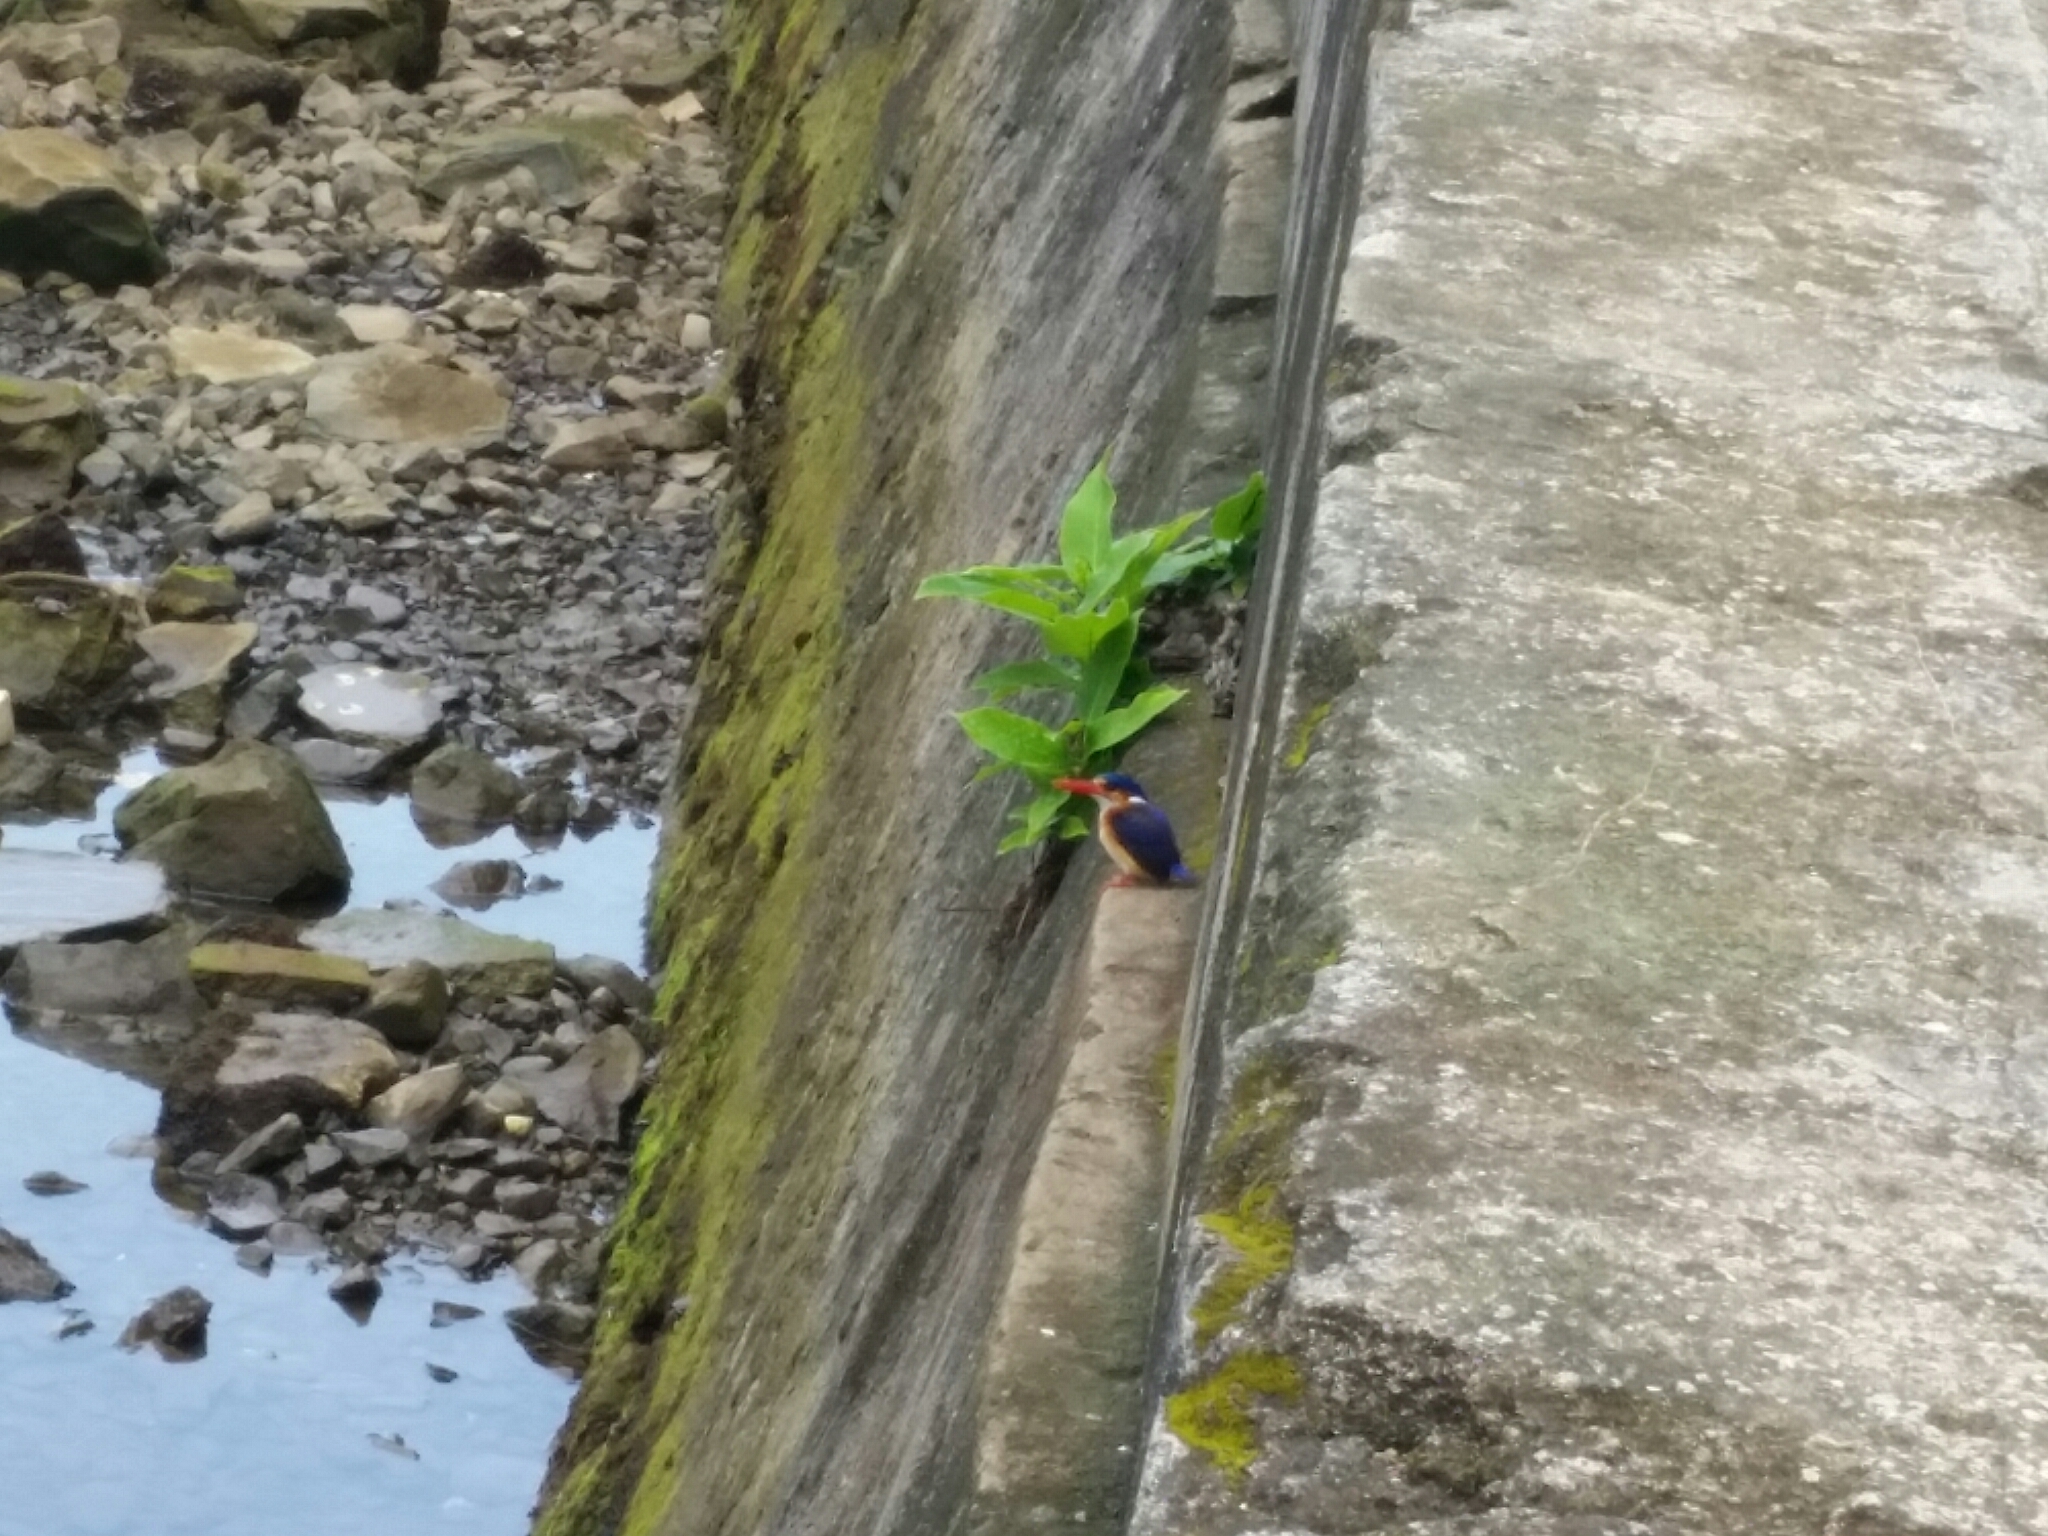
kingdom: Animalia
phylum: Chordata
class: Aves
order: Coraciiformes
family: Alcedinidae
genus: Corythornis
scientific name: Corythornis cristatus
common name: Malachite kingfisher
